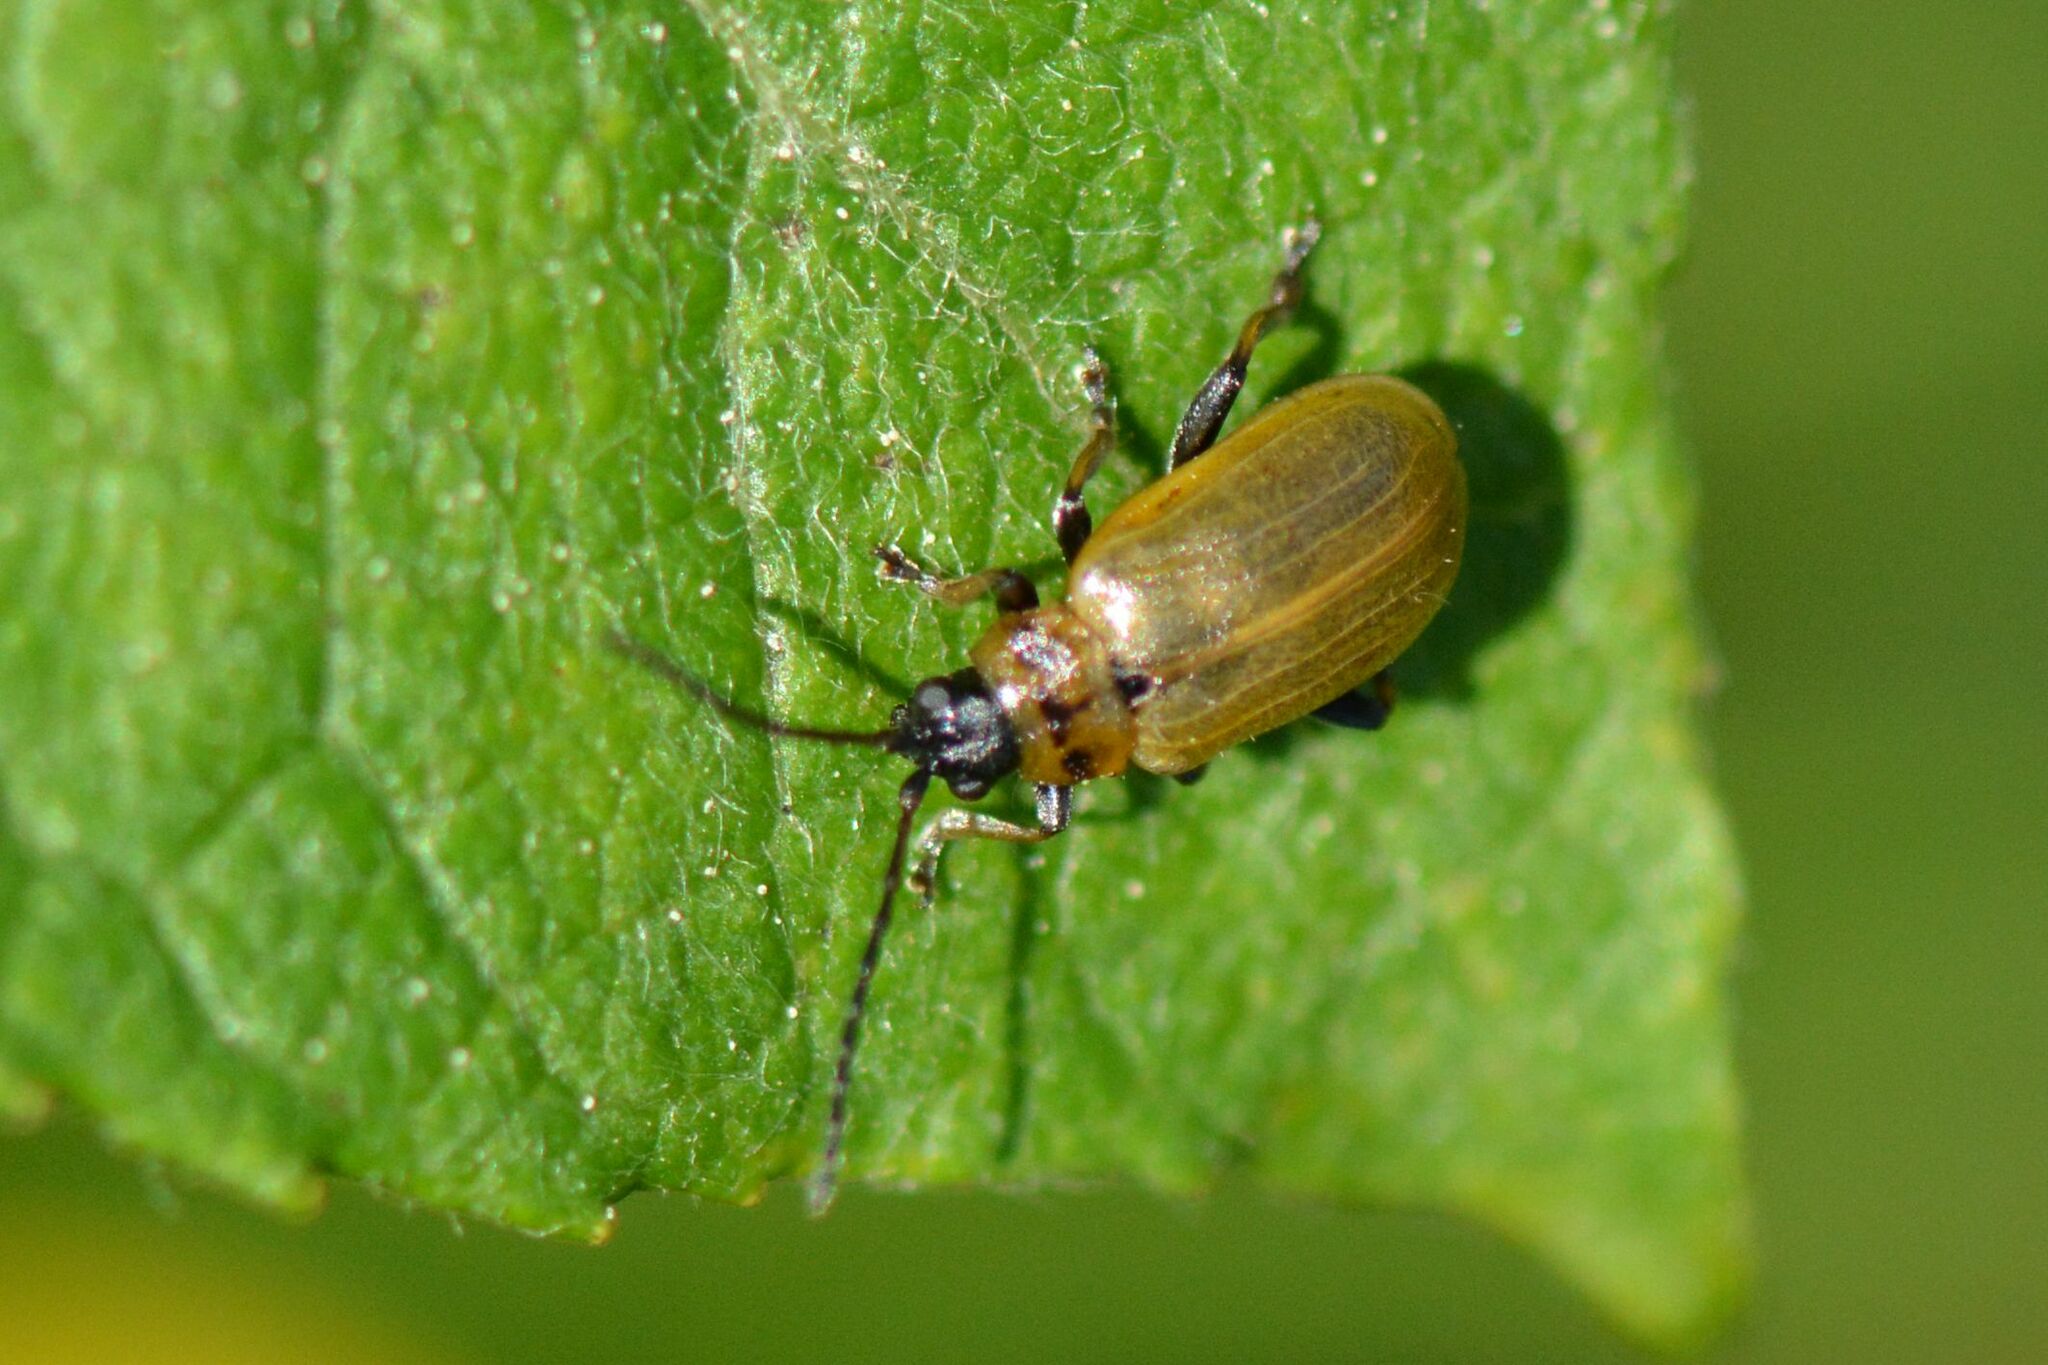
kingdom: Animalia
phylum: Arthropoda
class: Insecta
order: Coleoptera
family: Chrysomelidae
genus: Lochmaea
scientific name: Lochmaea caprea
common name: Willow leaf beetle
